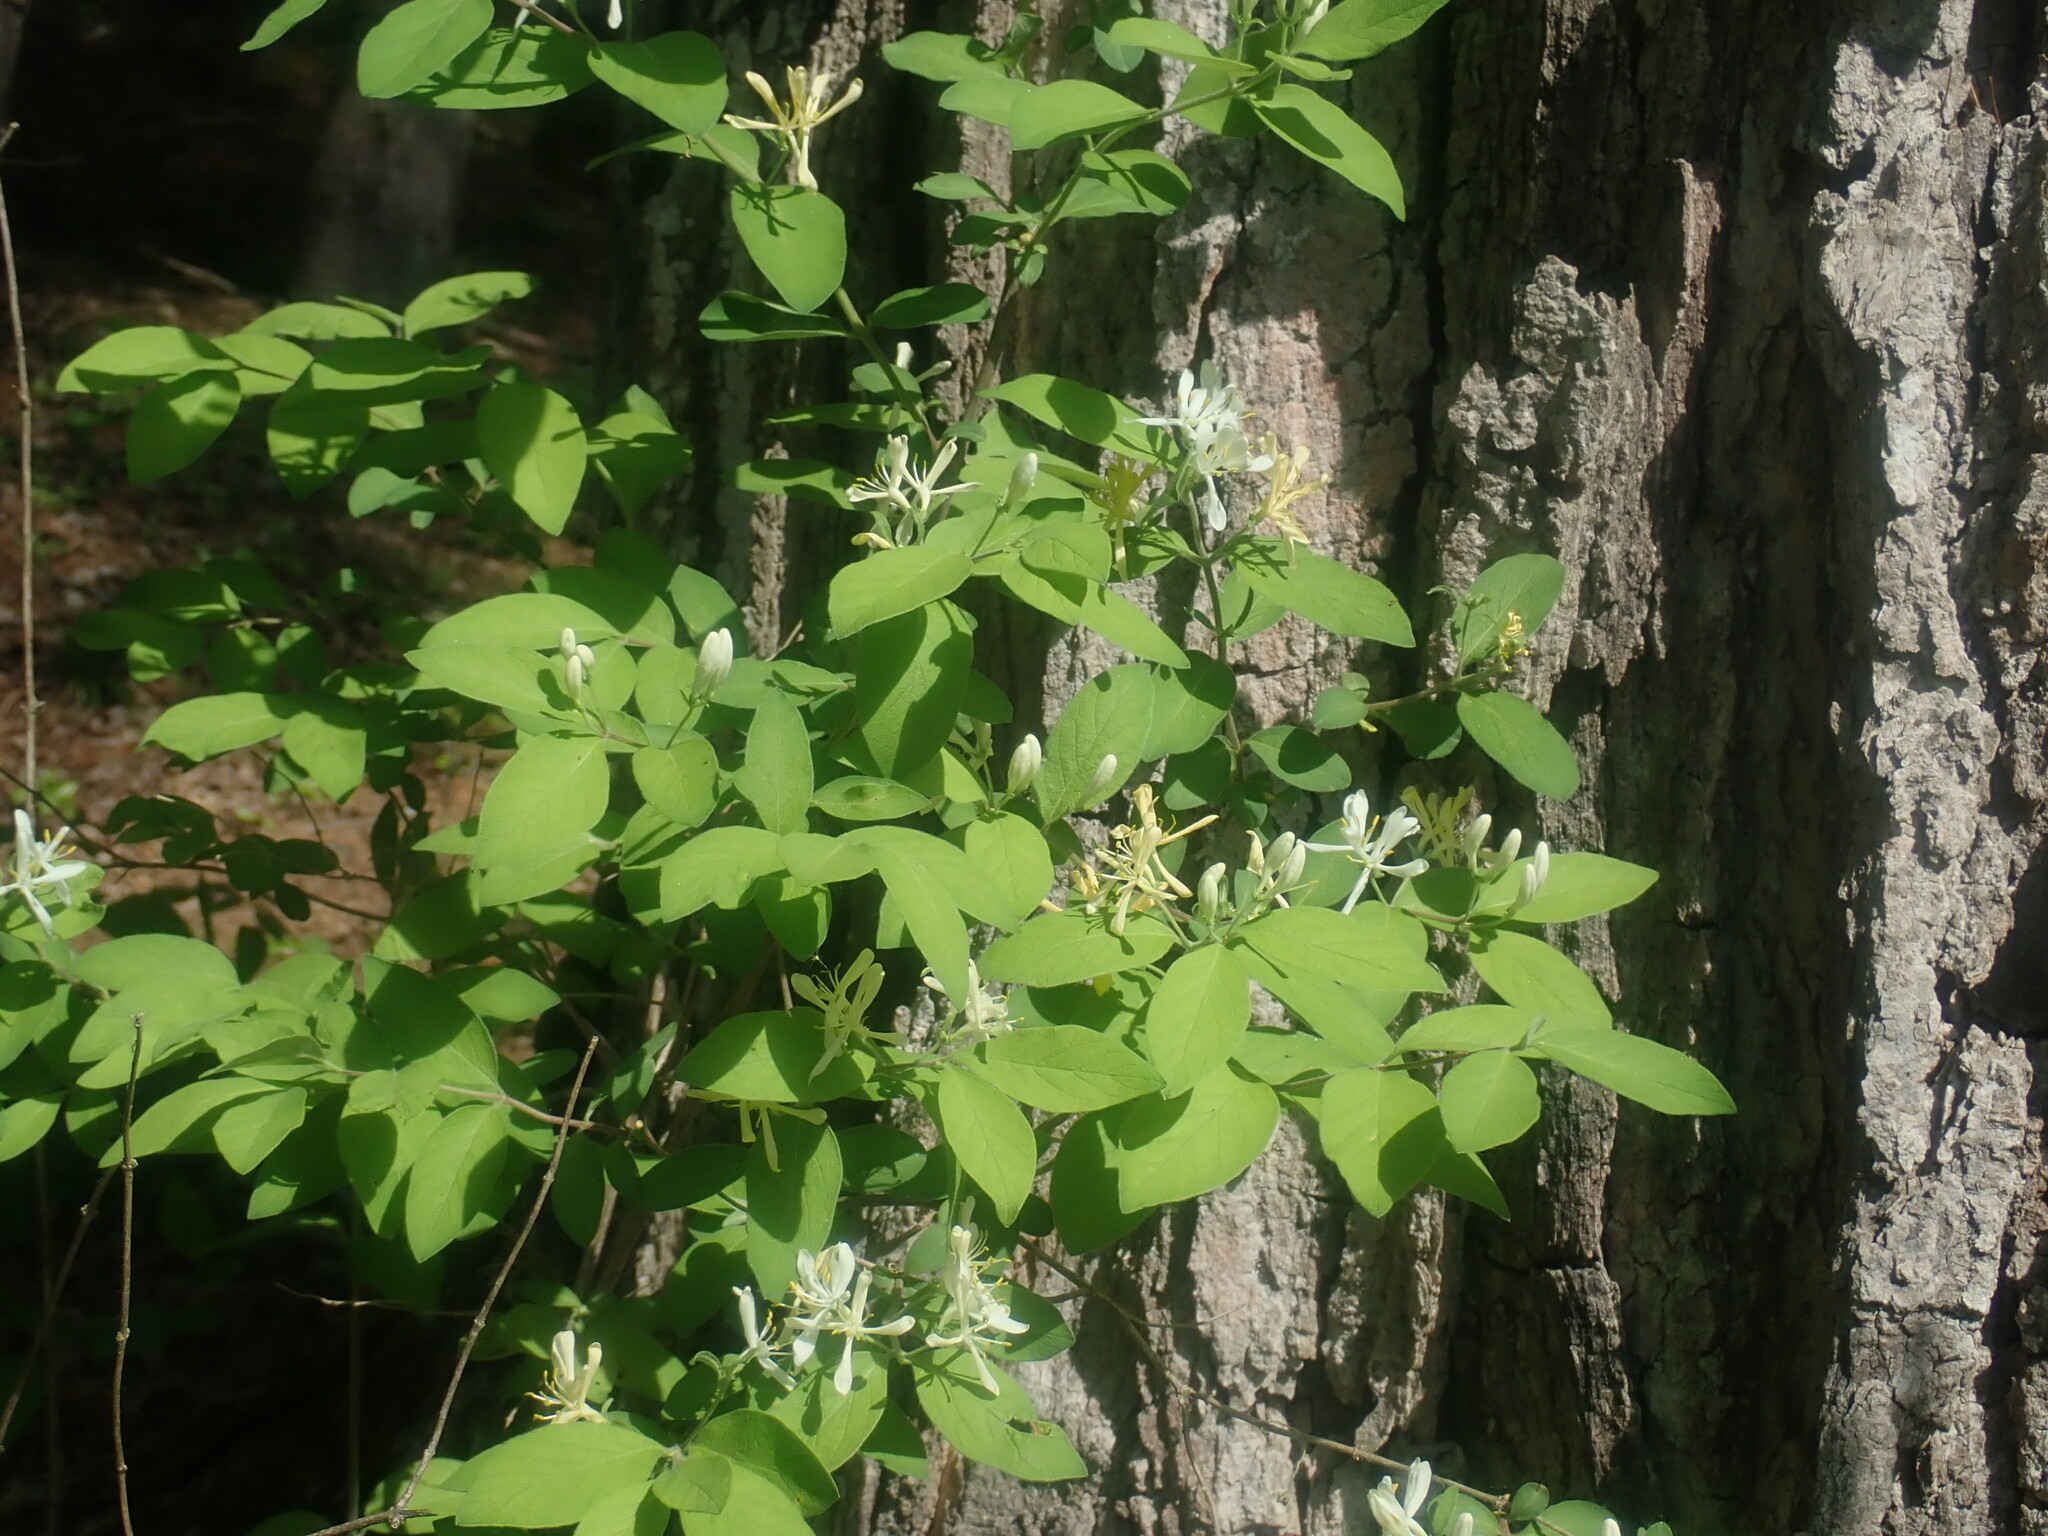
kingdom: Plantae
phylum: Tracheophyta
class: Magnoliopsida
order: Dipsacales
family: Caprifoliaceae
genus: Lonicera
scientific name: Lonicera
